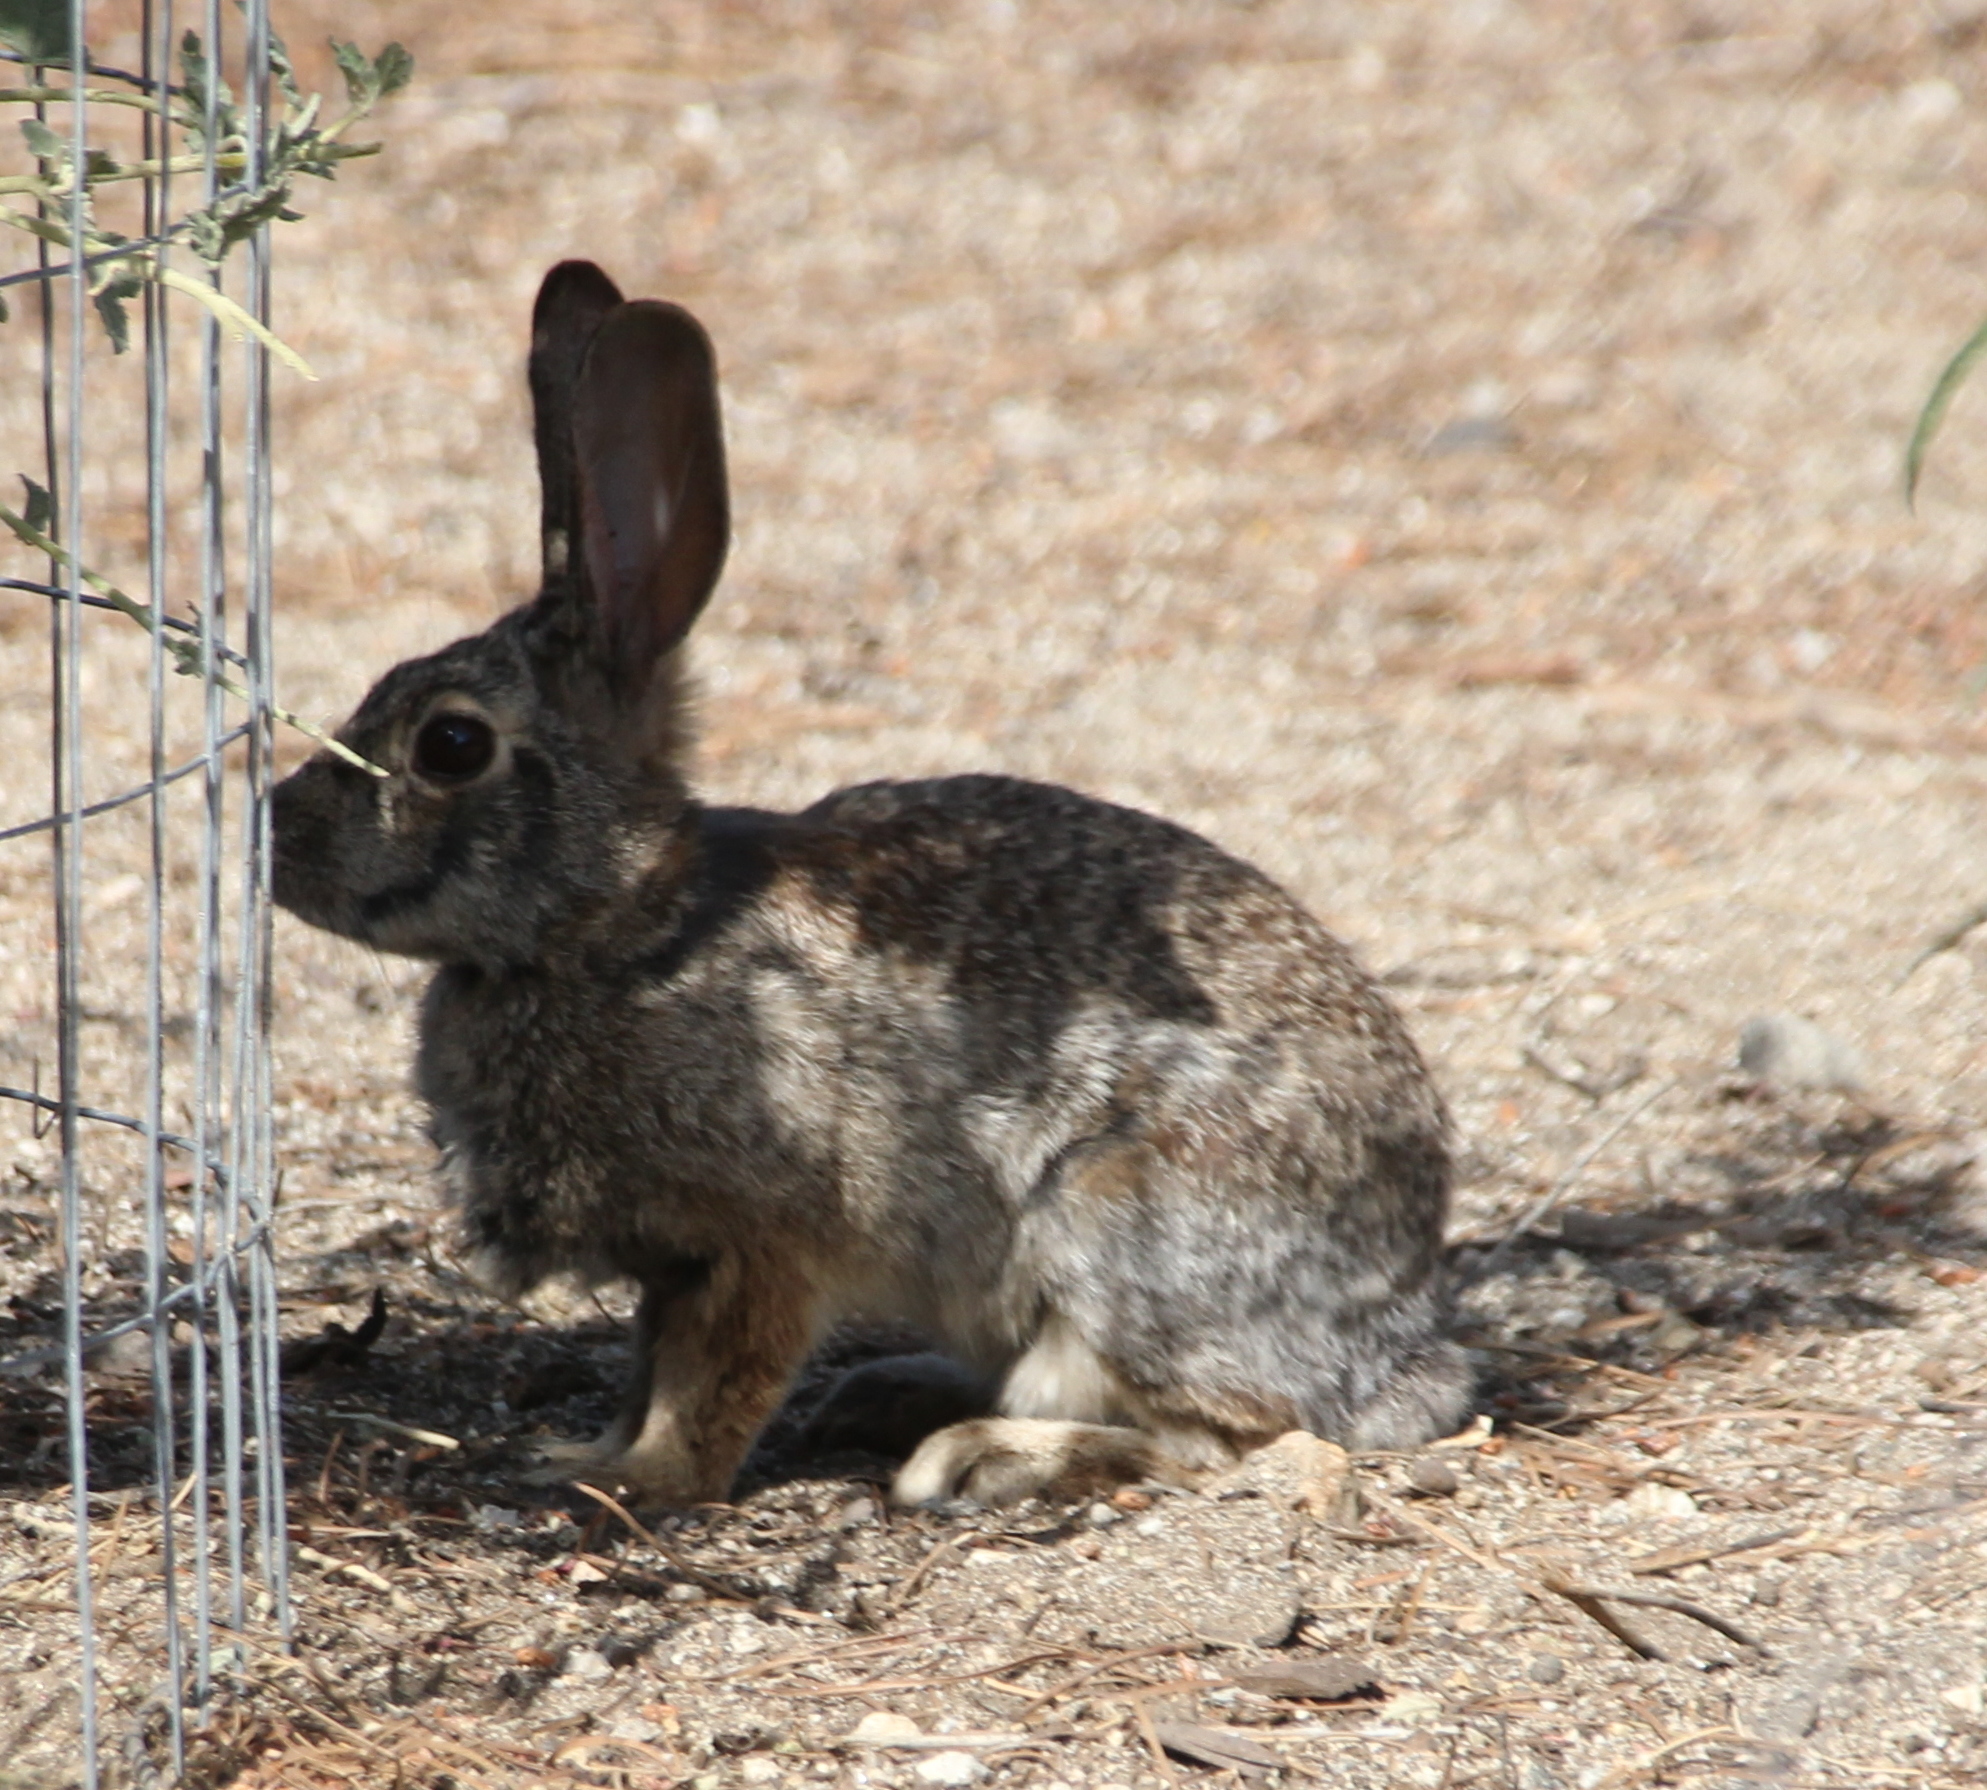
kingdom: Animalia
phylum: Chordata
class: Mammalia
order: Lagomorpha
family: Leporidae
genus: Sylvilagus
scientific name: Sylvilagus audubonii
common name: Desert cottontail
